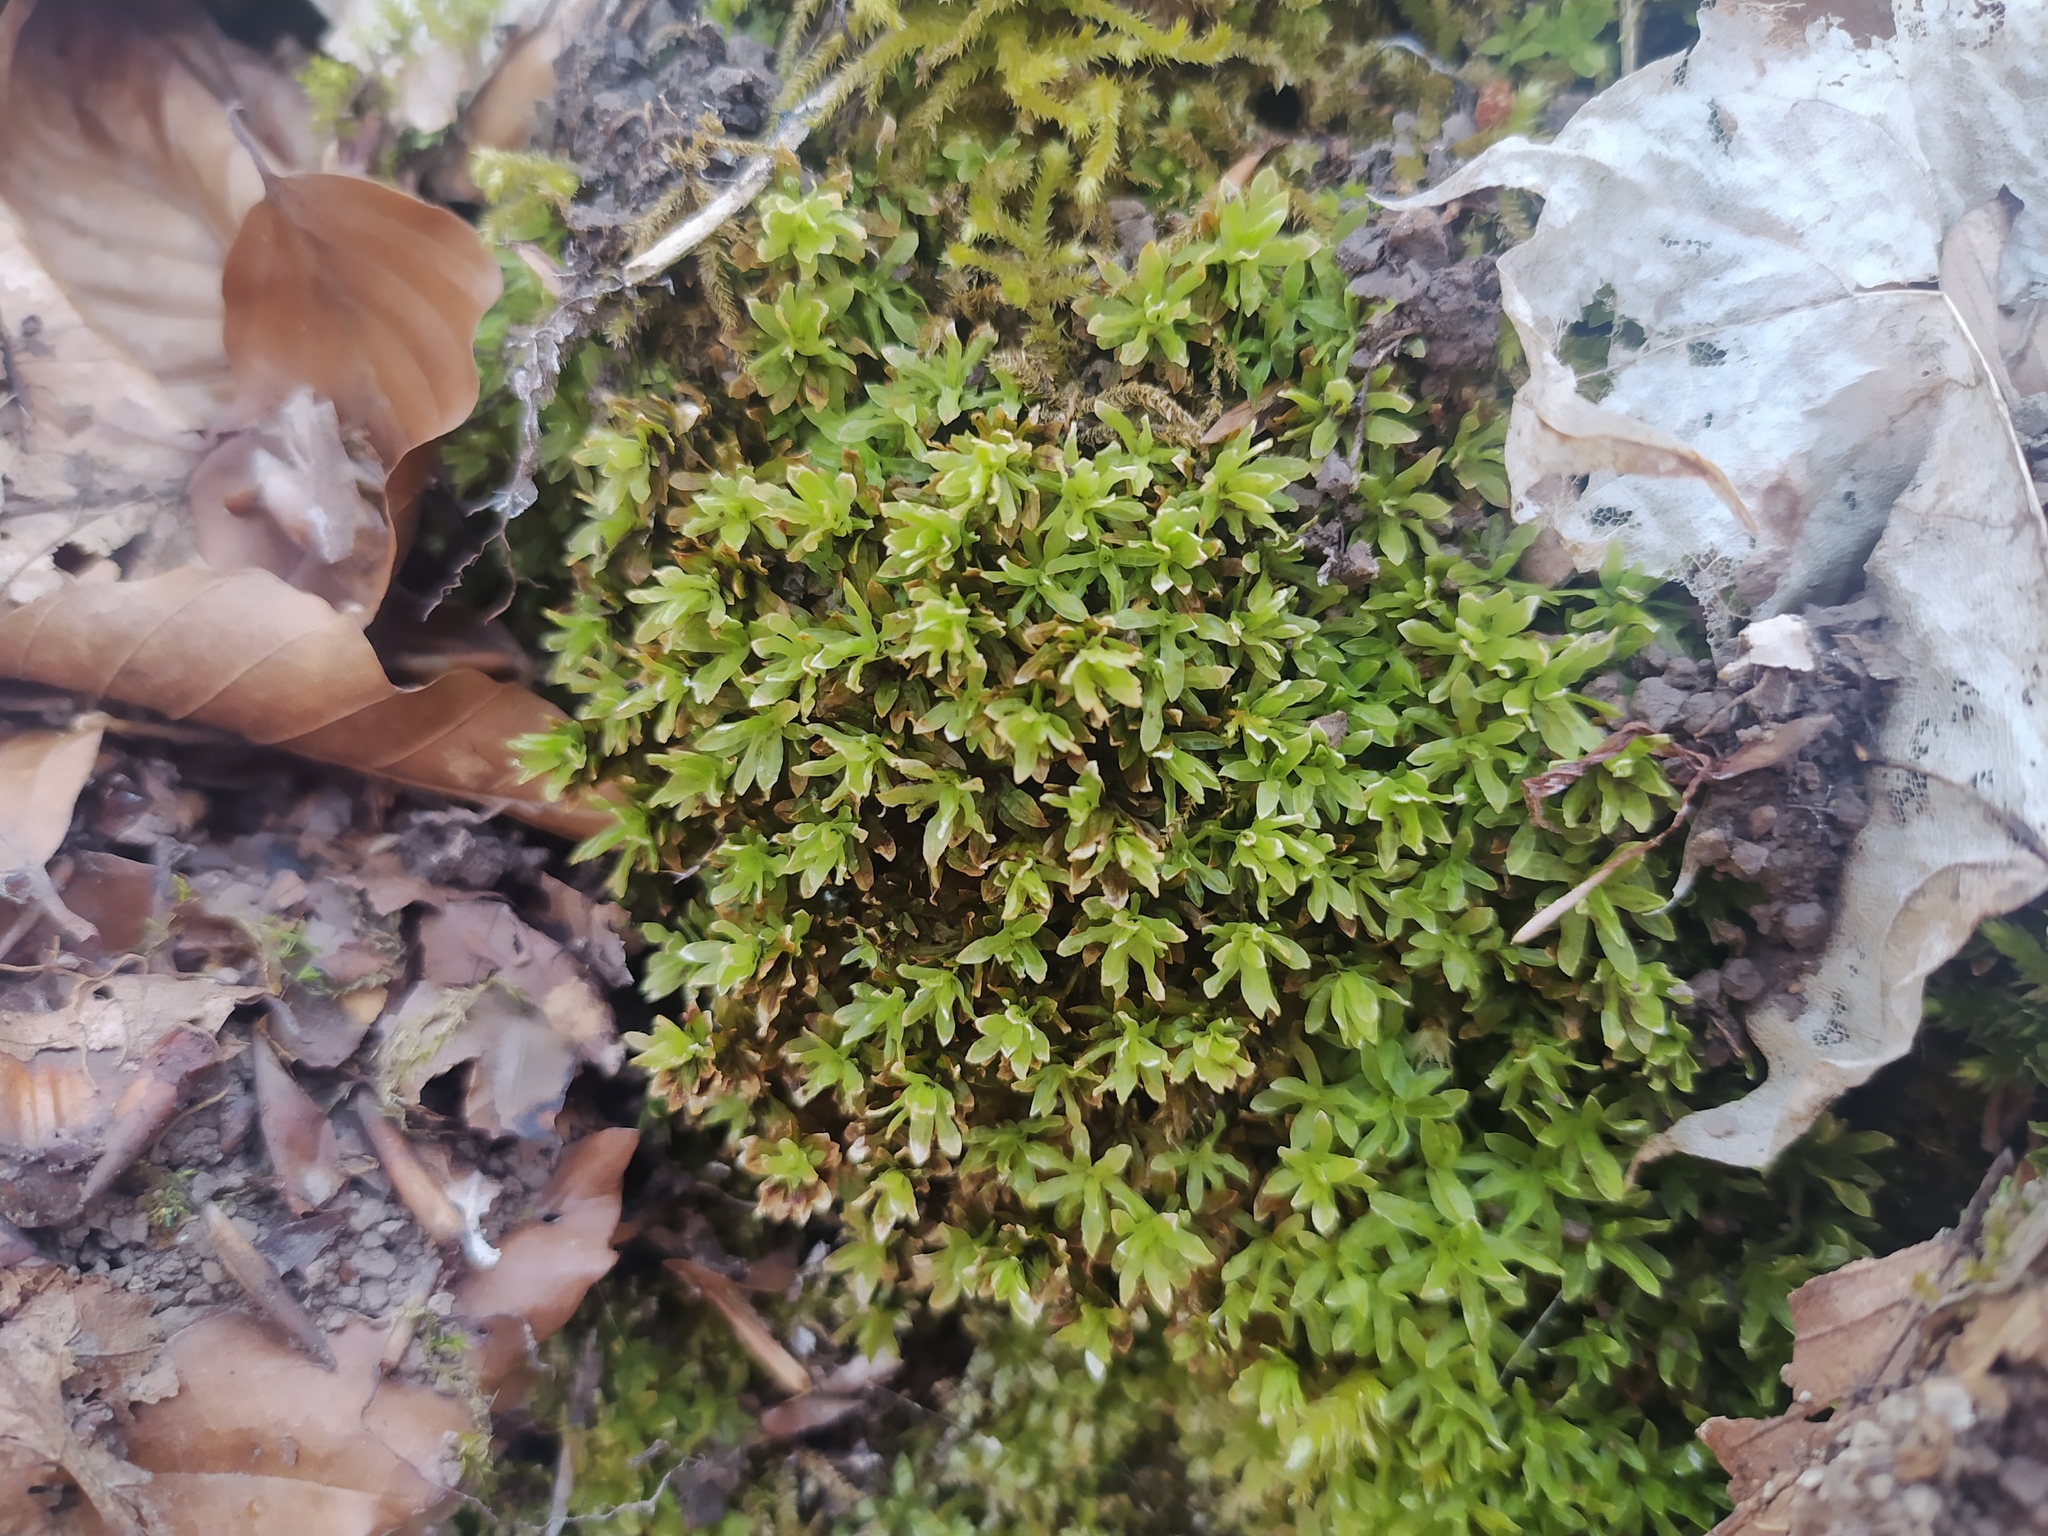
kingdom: Plantae
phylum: Bryophyta
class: Bryopsida
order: Encalyptales
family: Encalyptaceae
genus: Encalypta
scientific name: Encalypta streptocarpa
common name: Spiral extinguisher-moss
